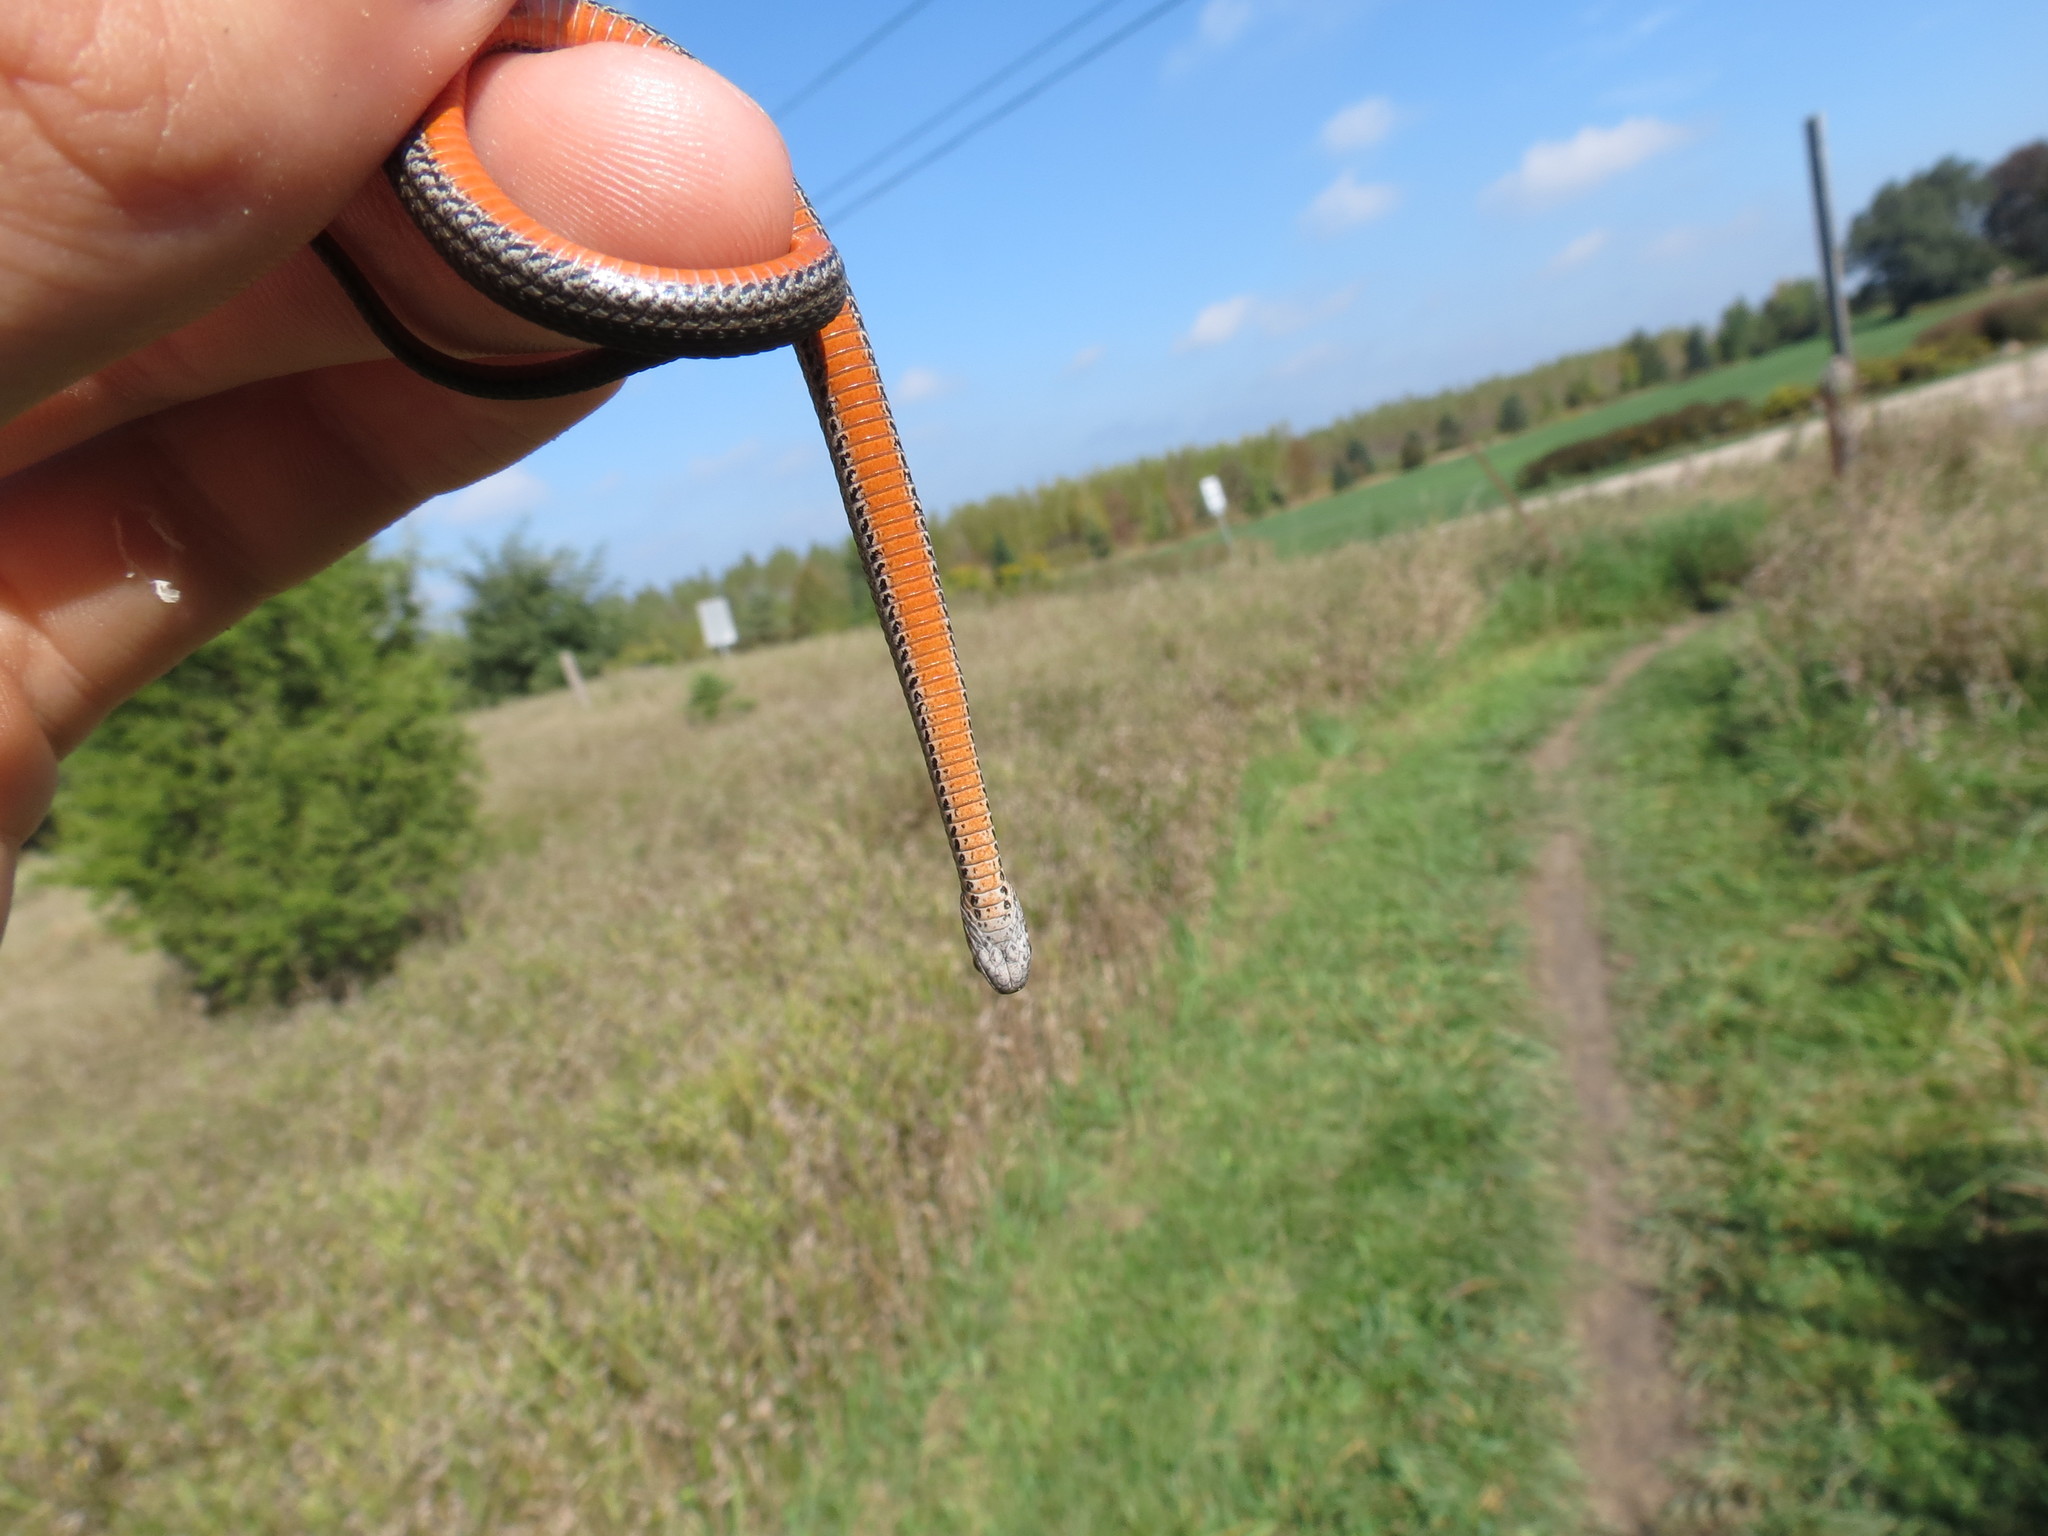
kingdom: Animalia
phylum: Chordata
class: Squamata
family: Colubridae
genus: Storeria
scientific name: Storeria occipitomaculata
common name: Redbelly snake
